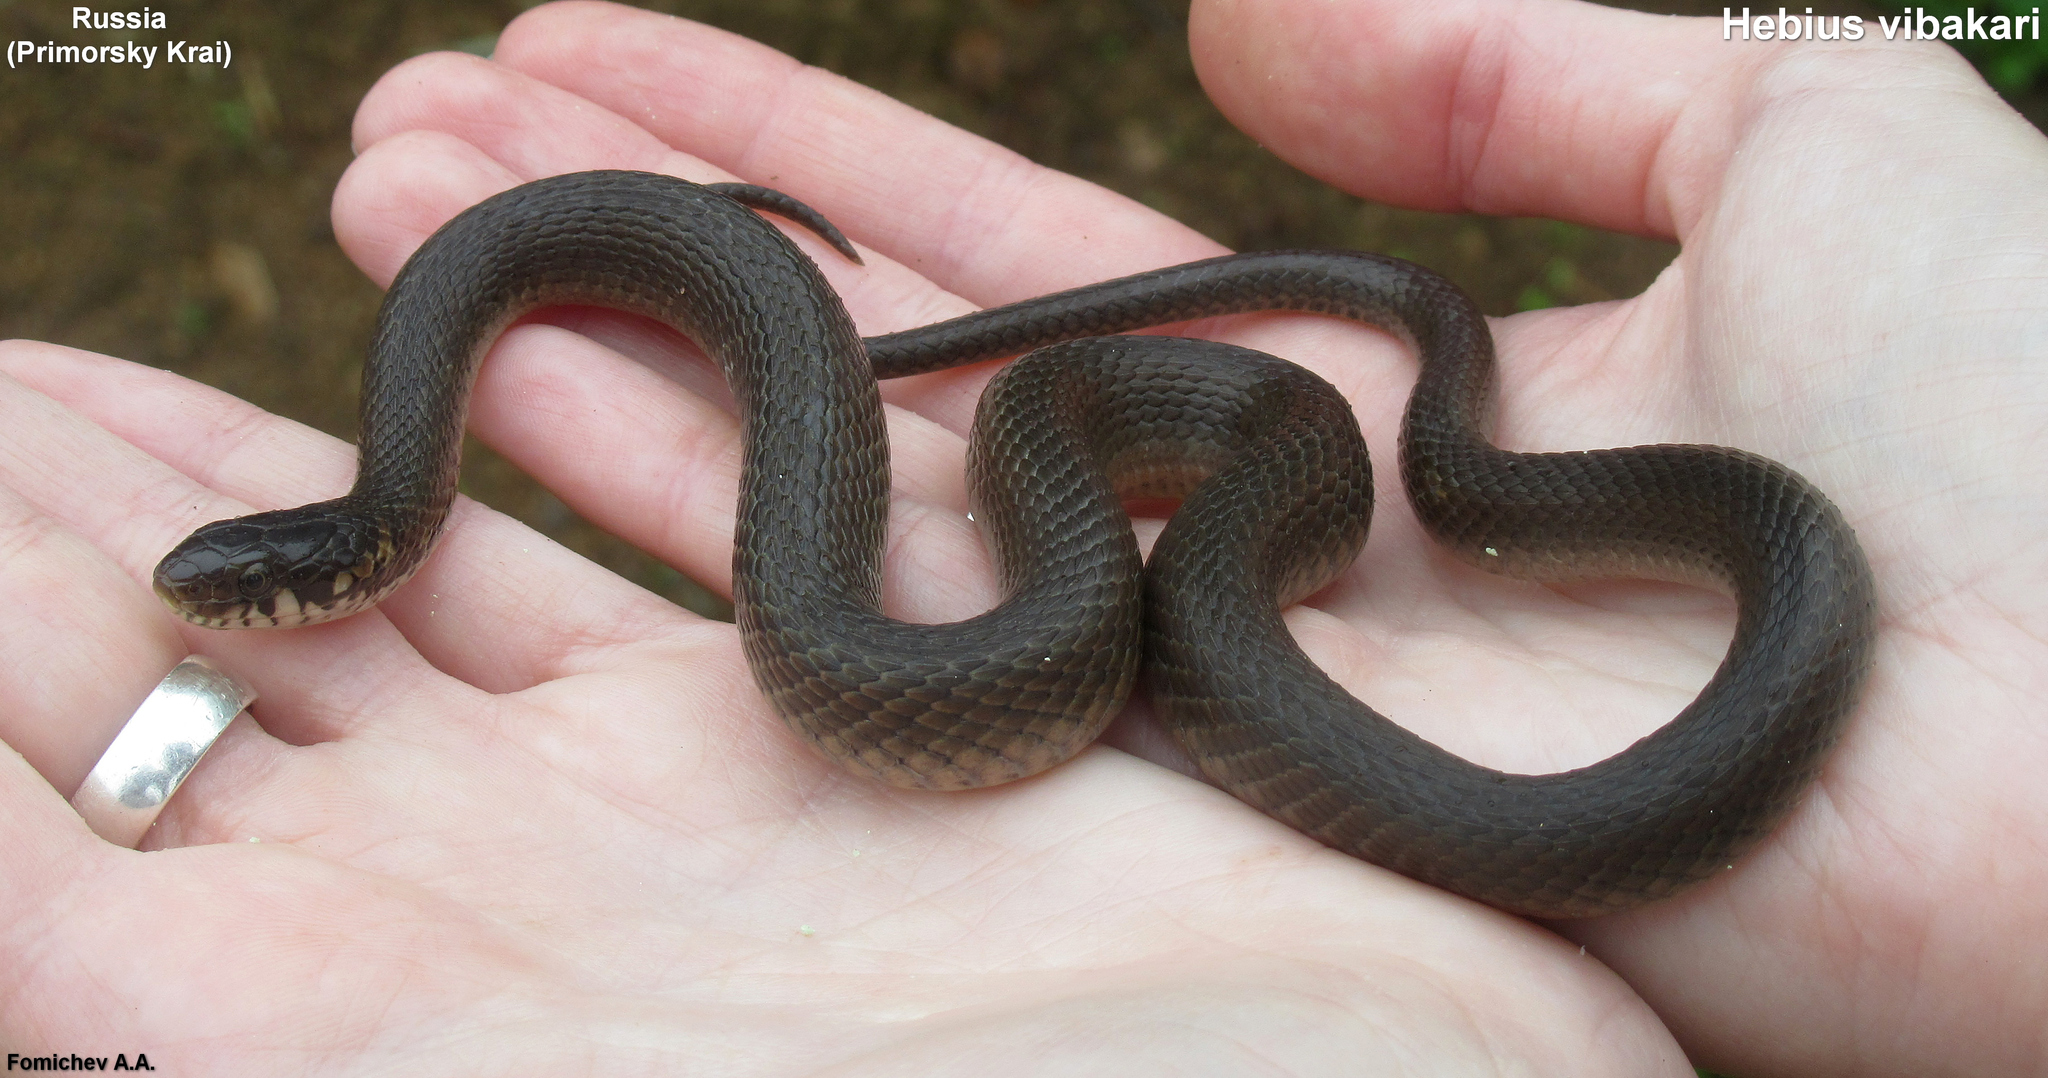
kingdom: Animalia
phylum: Chordata
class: Squamata
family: Colubridae
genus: Hebius
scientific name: Hebius vibakari
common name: Japanese keelback
